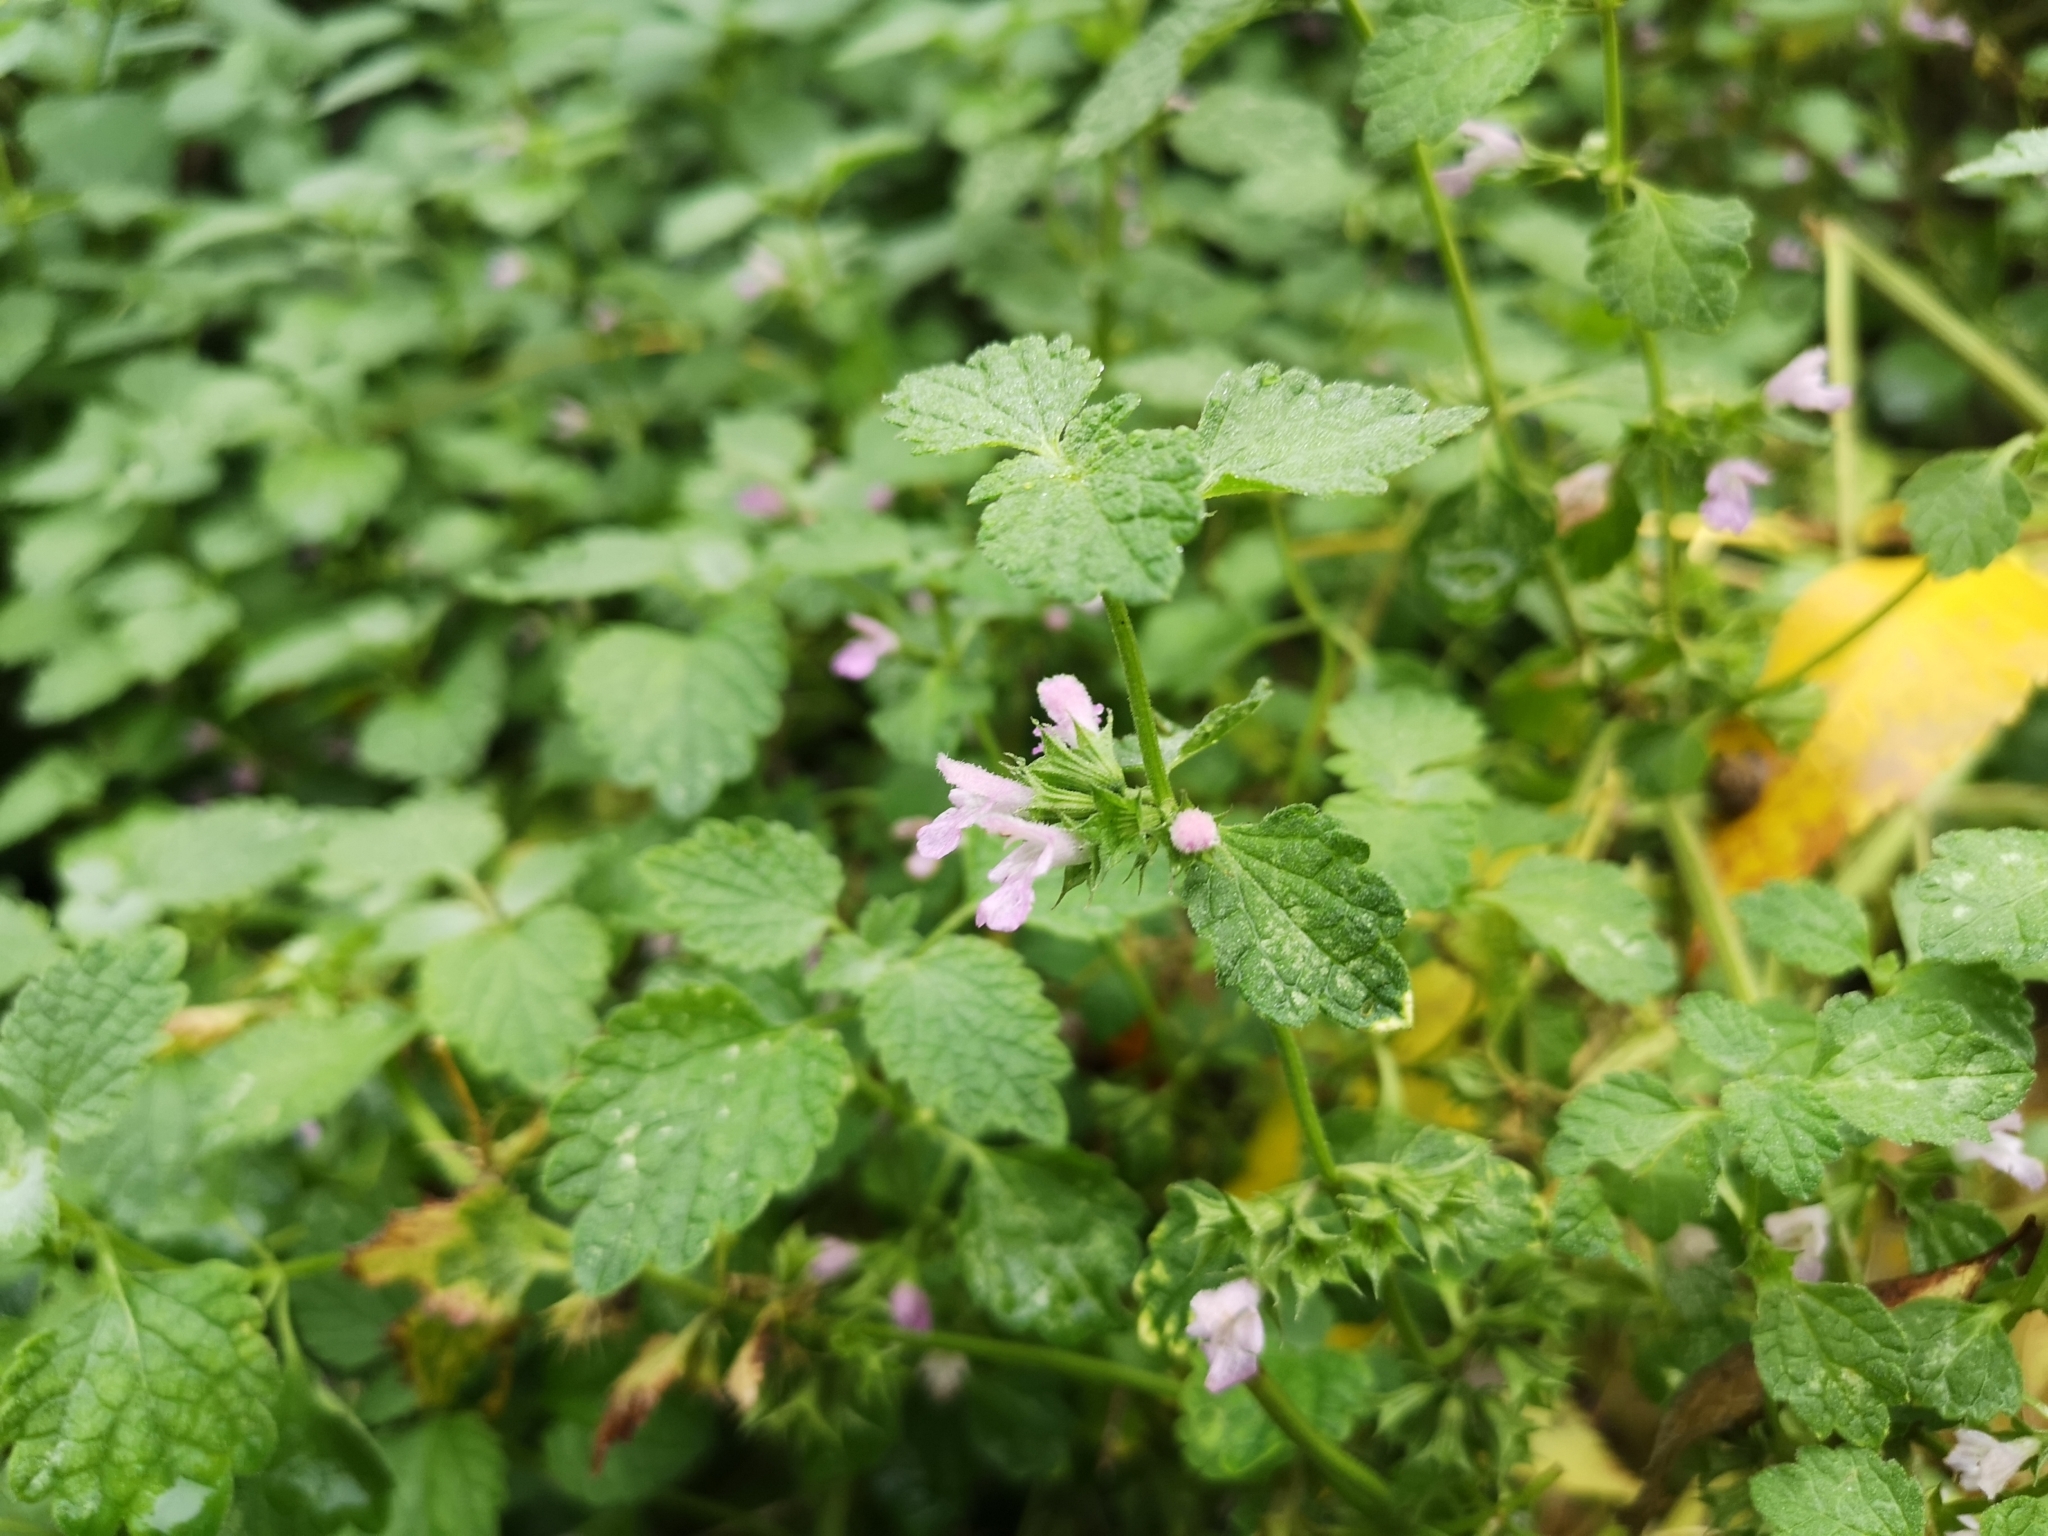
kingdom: Plantae
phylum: Tracheophyta
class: Magnoliopsida
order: Lamiales
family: Lamiaceae
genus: Ballota
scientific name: Ballota nigra
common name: Black horehound
